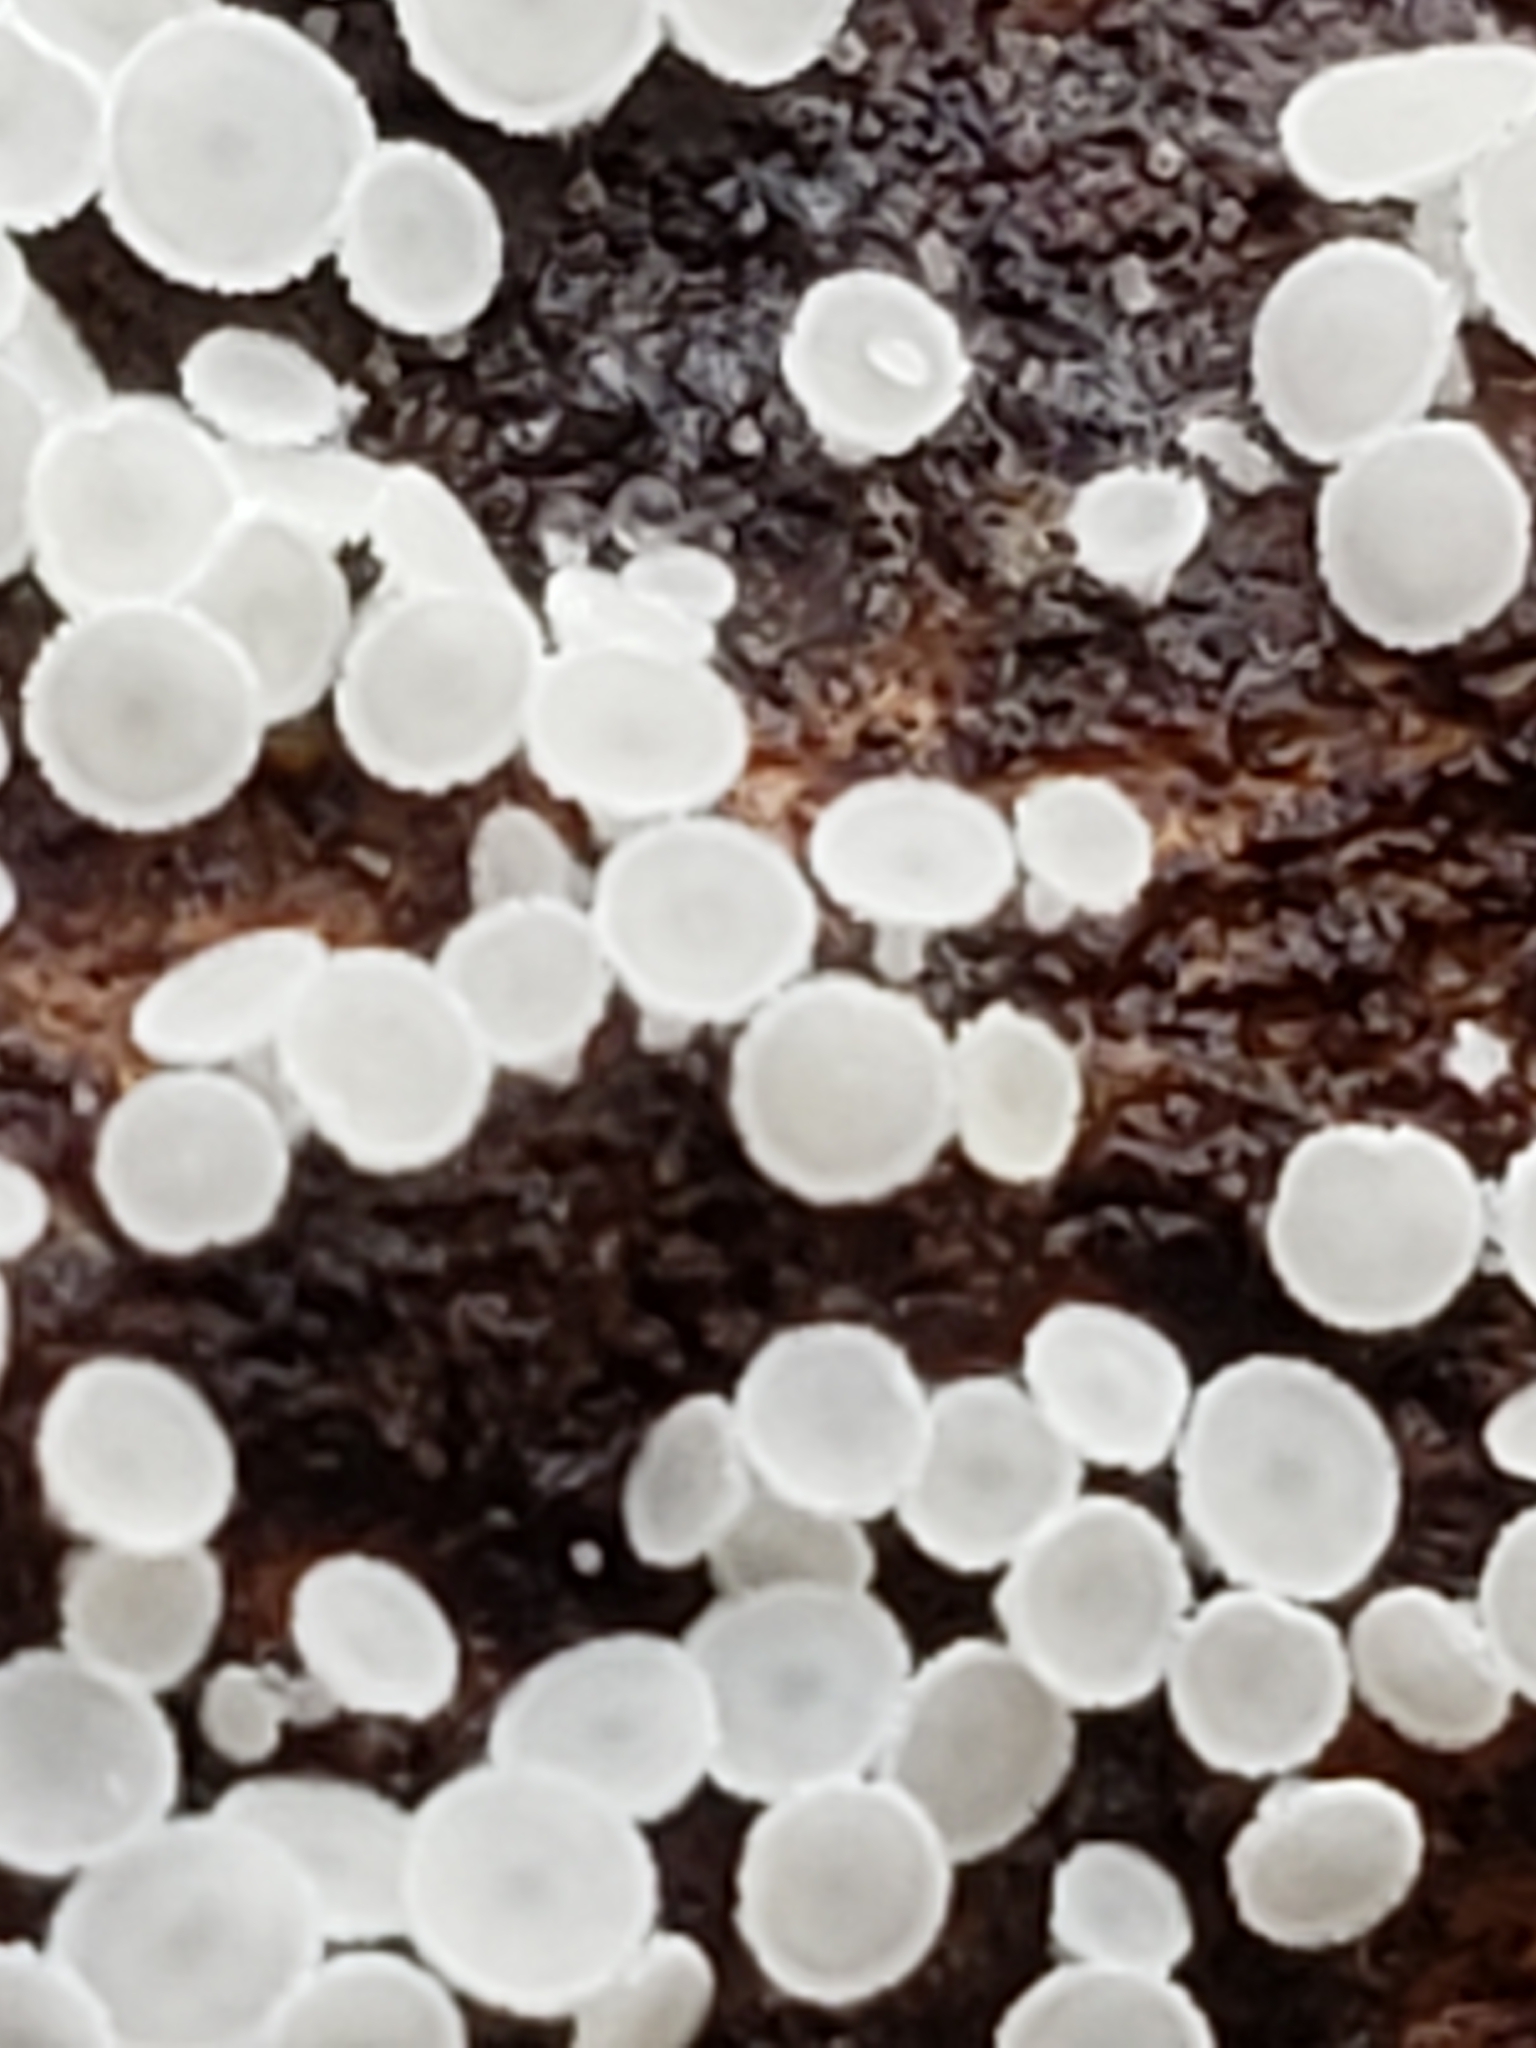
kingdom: Fungi
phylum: Ascomycota
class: Leotiomycetes
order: Helotiales
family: Lachnaceae
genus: Lachnum
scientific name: Lachnum virgineum
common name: Snowy disco
